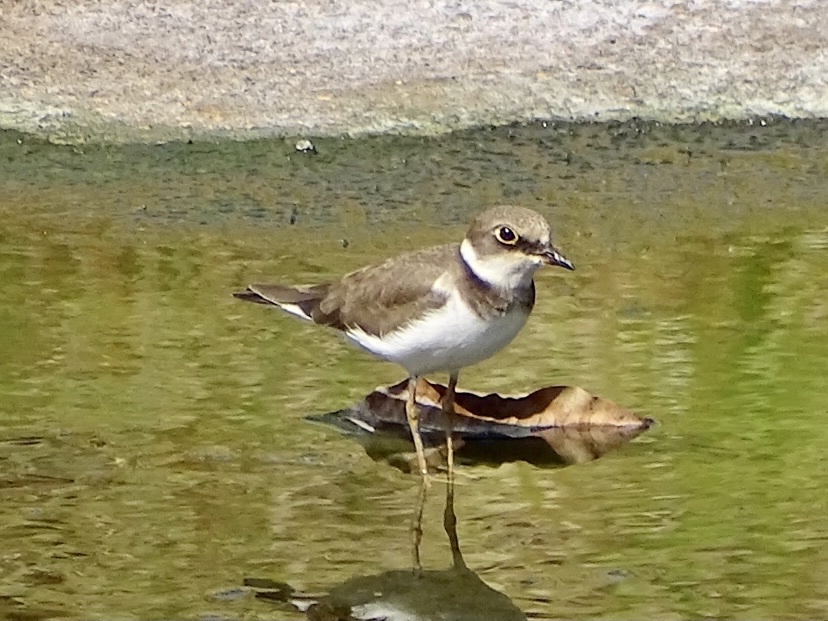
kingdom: Animalia
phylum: Chordata
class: Aves
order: Charadriiformes
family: Charadriidae
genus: Charadrius
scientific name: Charadrius dubius
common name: Little ringed plover
